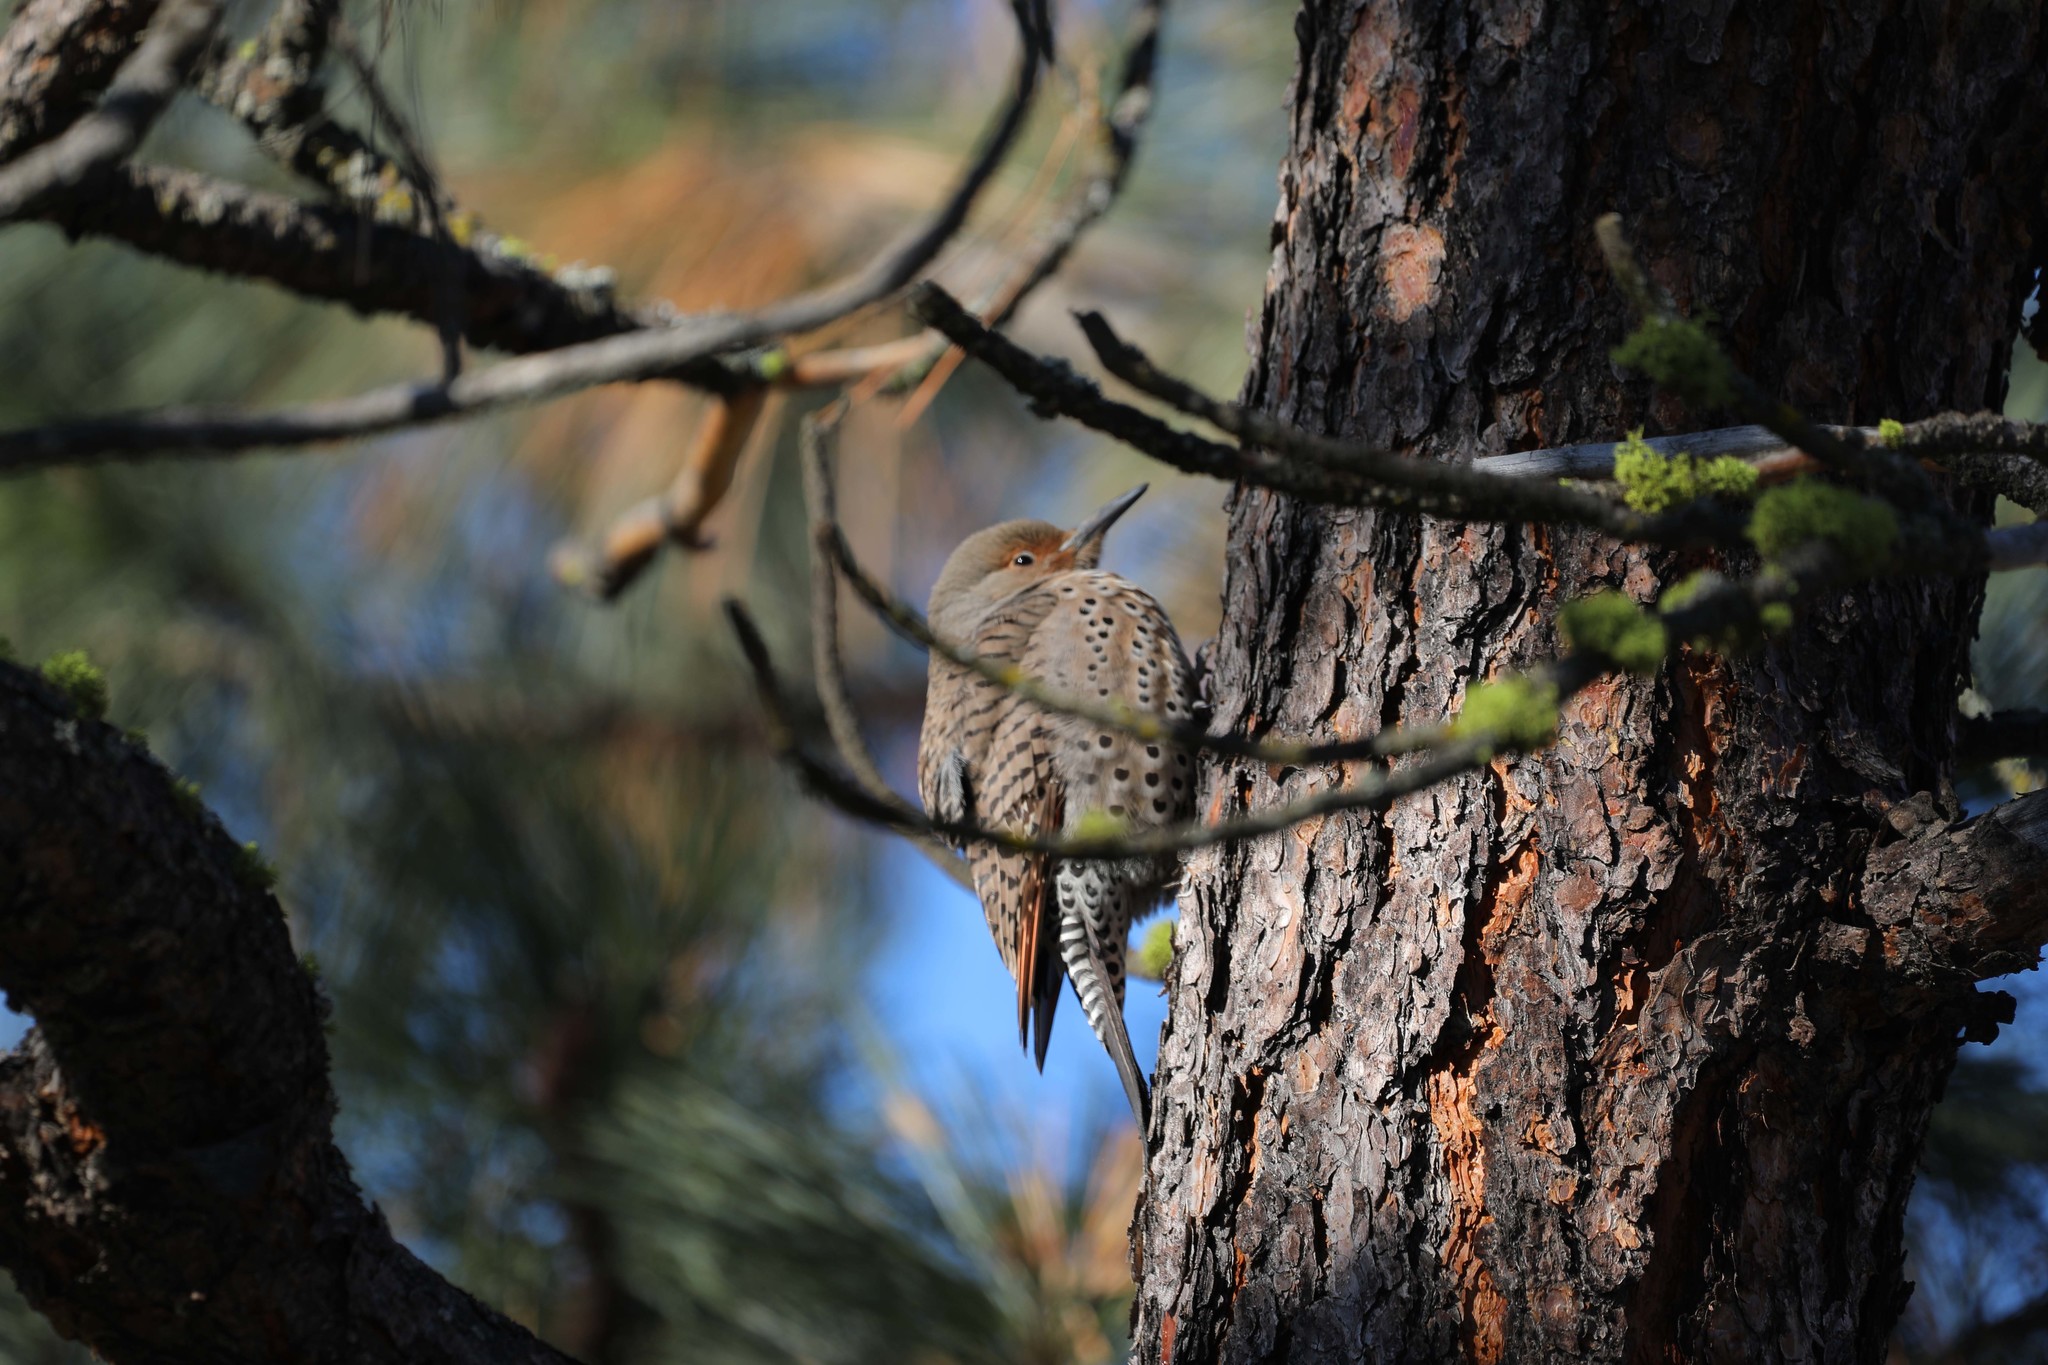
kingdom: Animalia
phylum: Chordata
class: Aves
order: Piciformes
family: Picidae
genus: Colaptes
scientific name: Colaptes auratus
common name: Northern flicker
